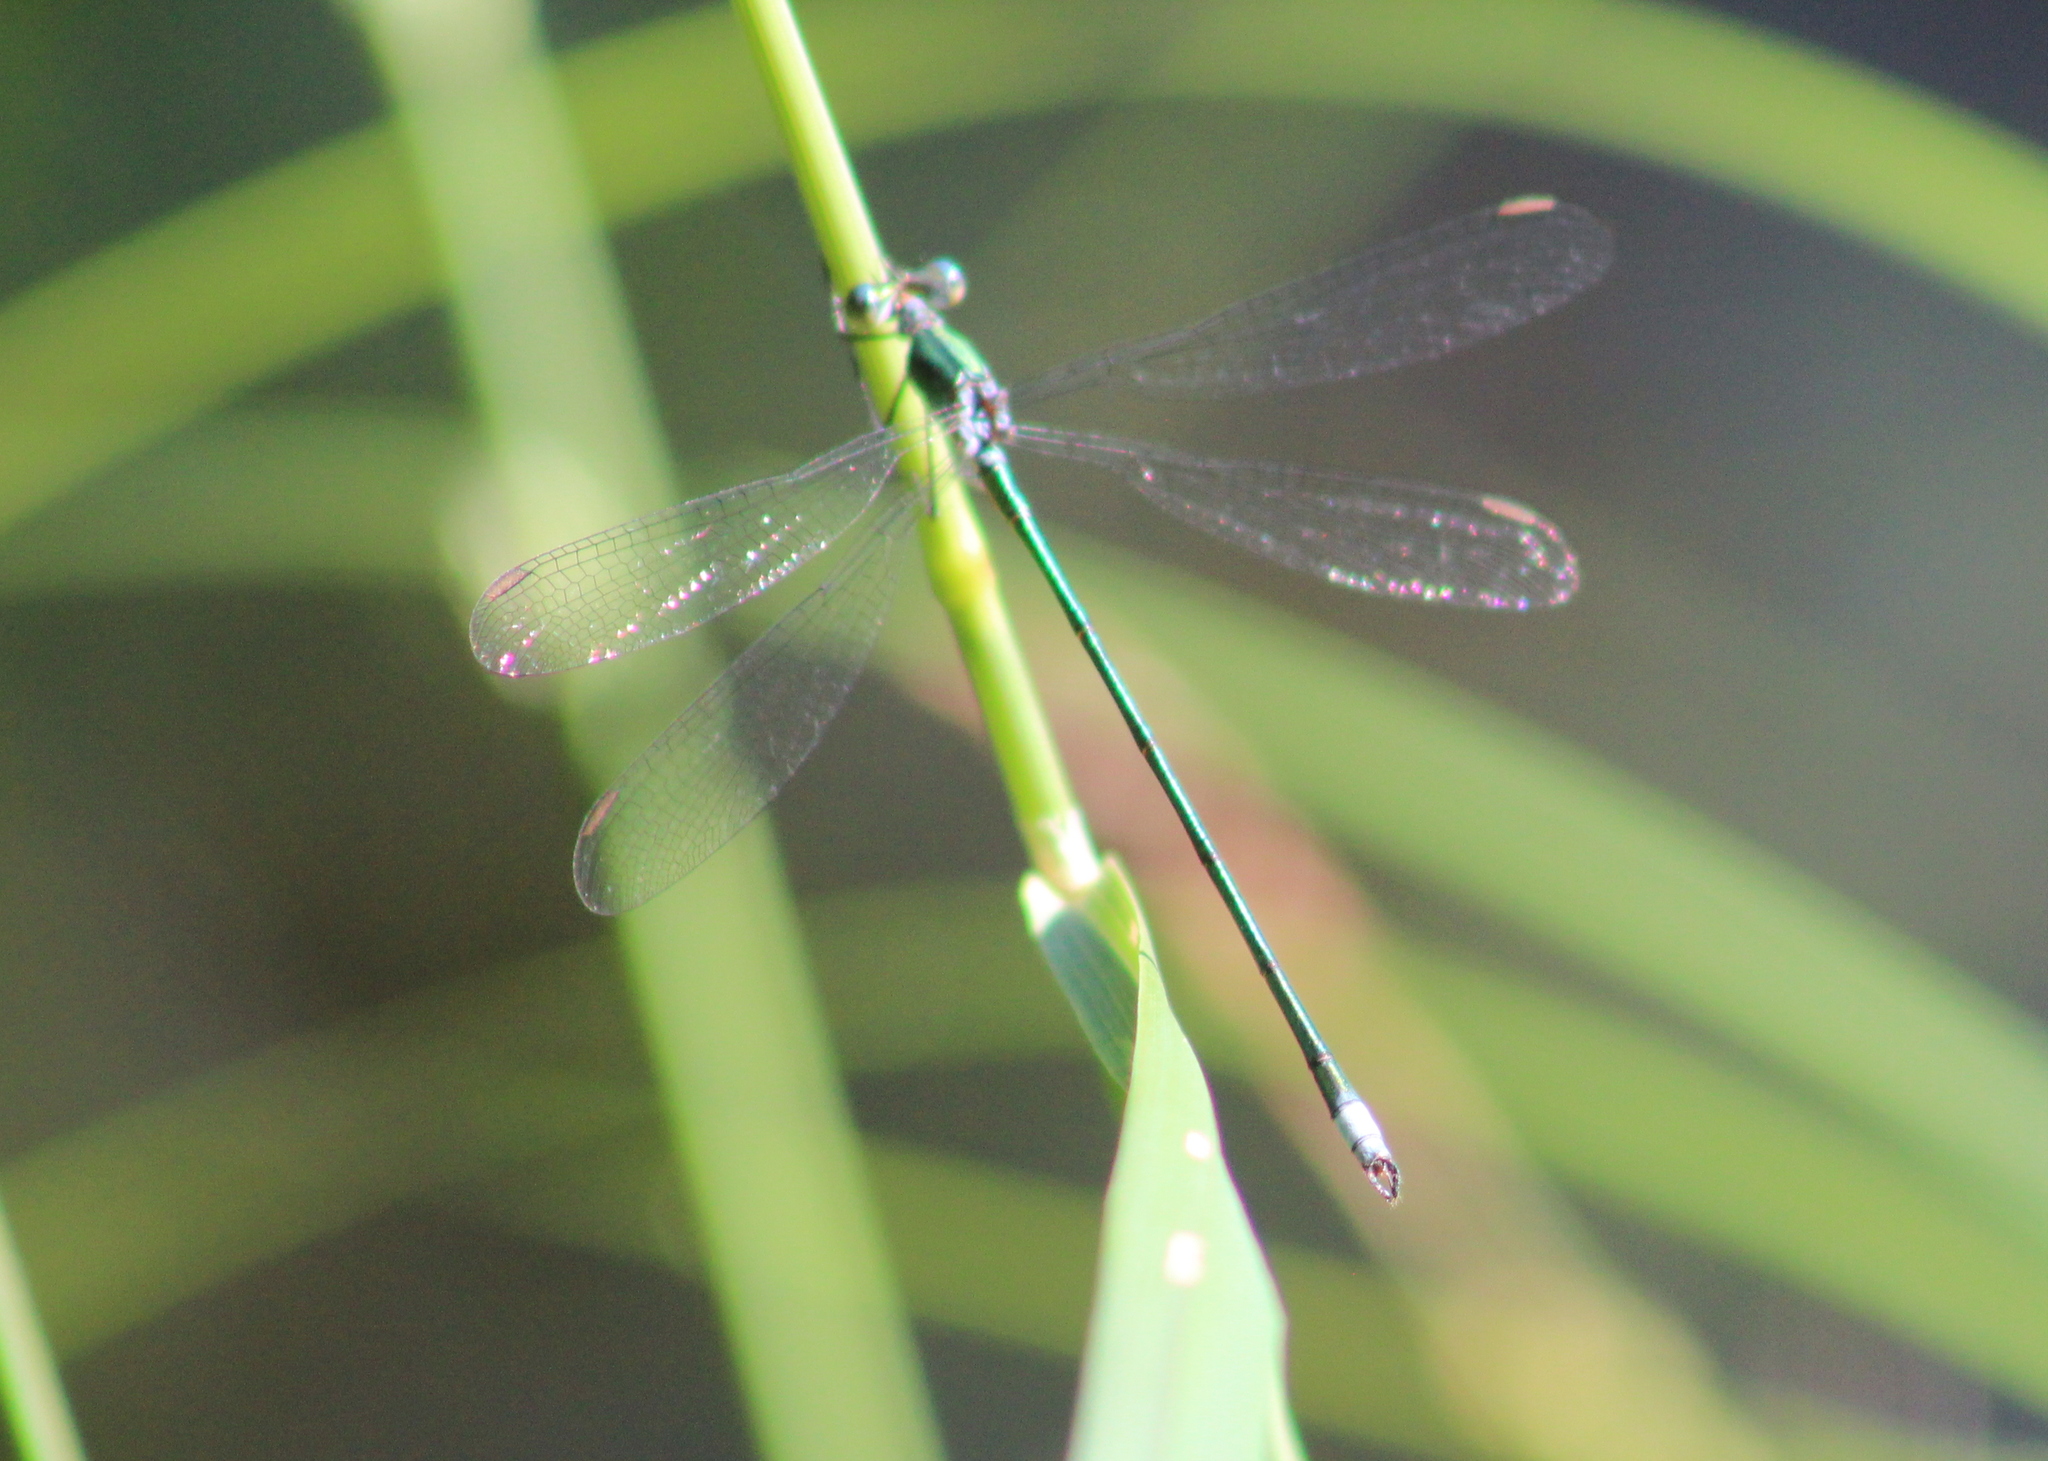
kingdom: Animalia
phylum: Arthropoda
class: Insecta
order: Odonata
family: Lestidae
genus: Lestes
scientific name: Lestes vigilax
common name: Swamp spreadwing
